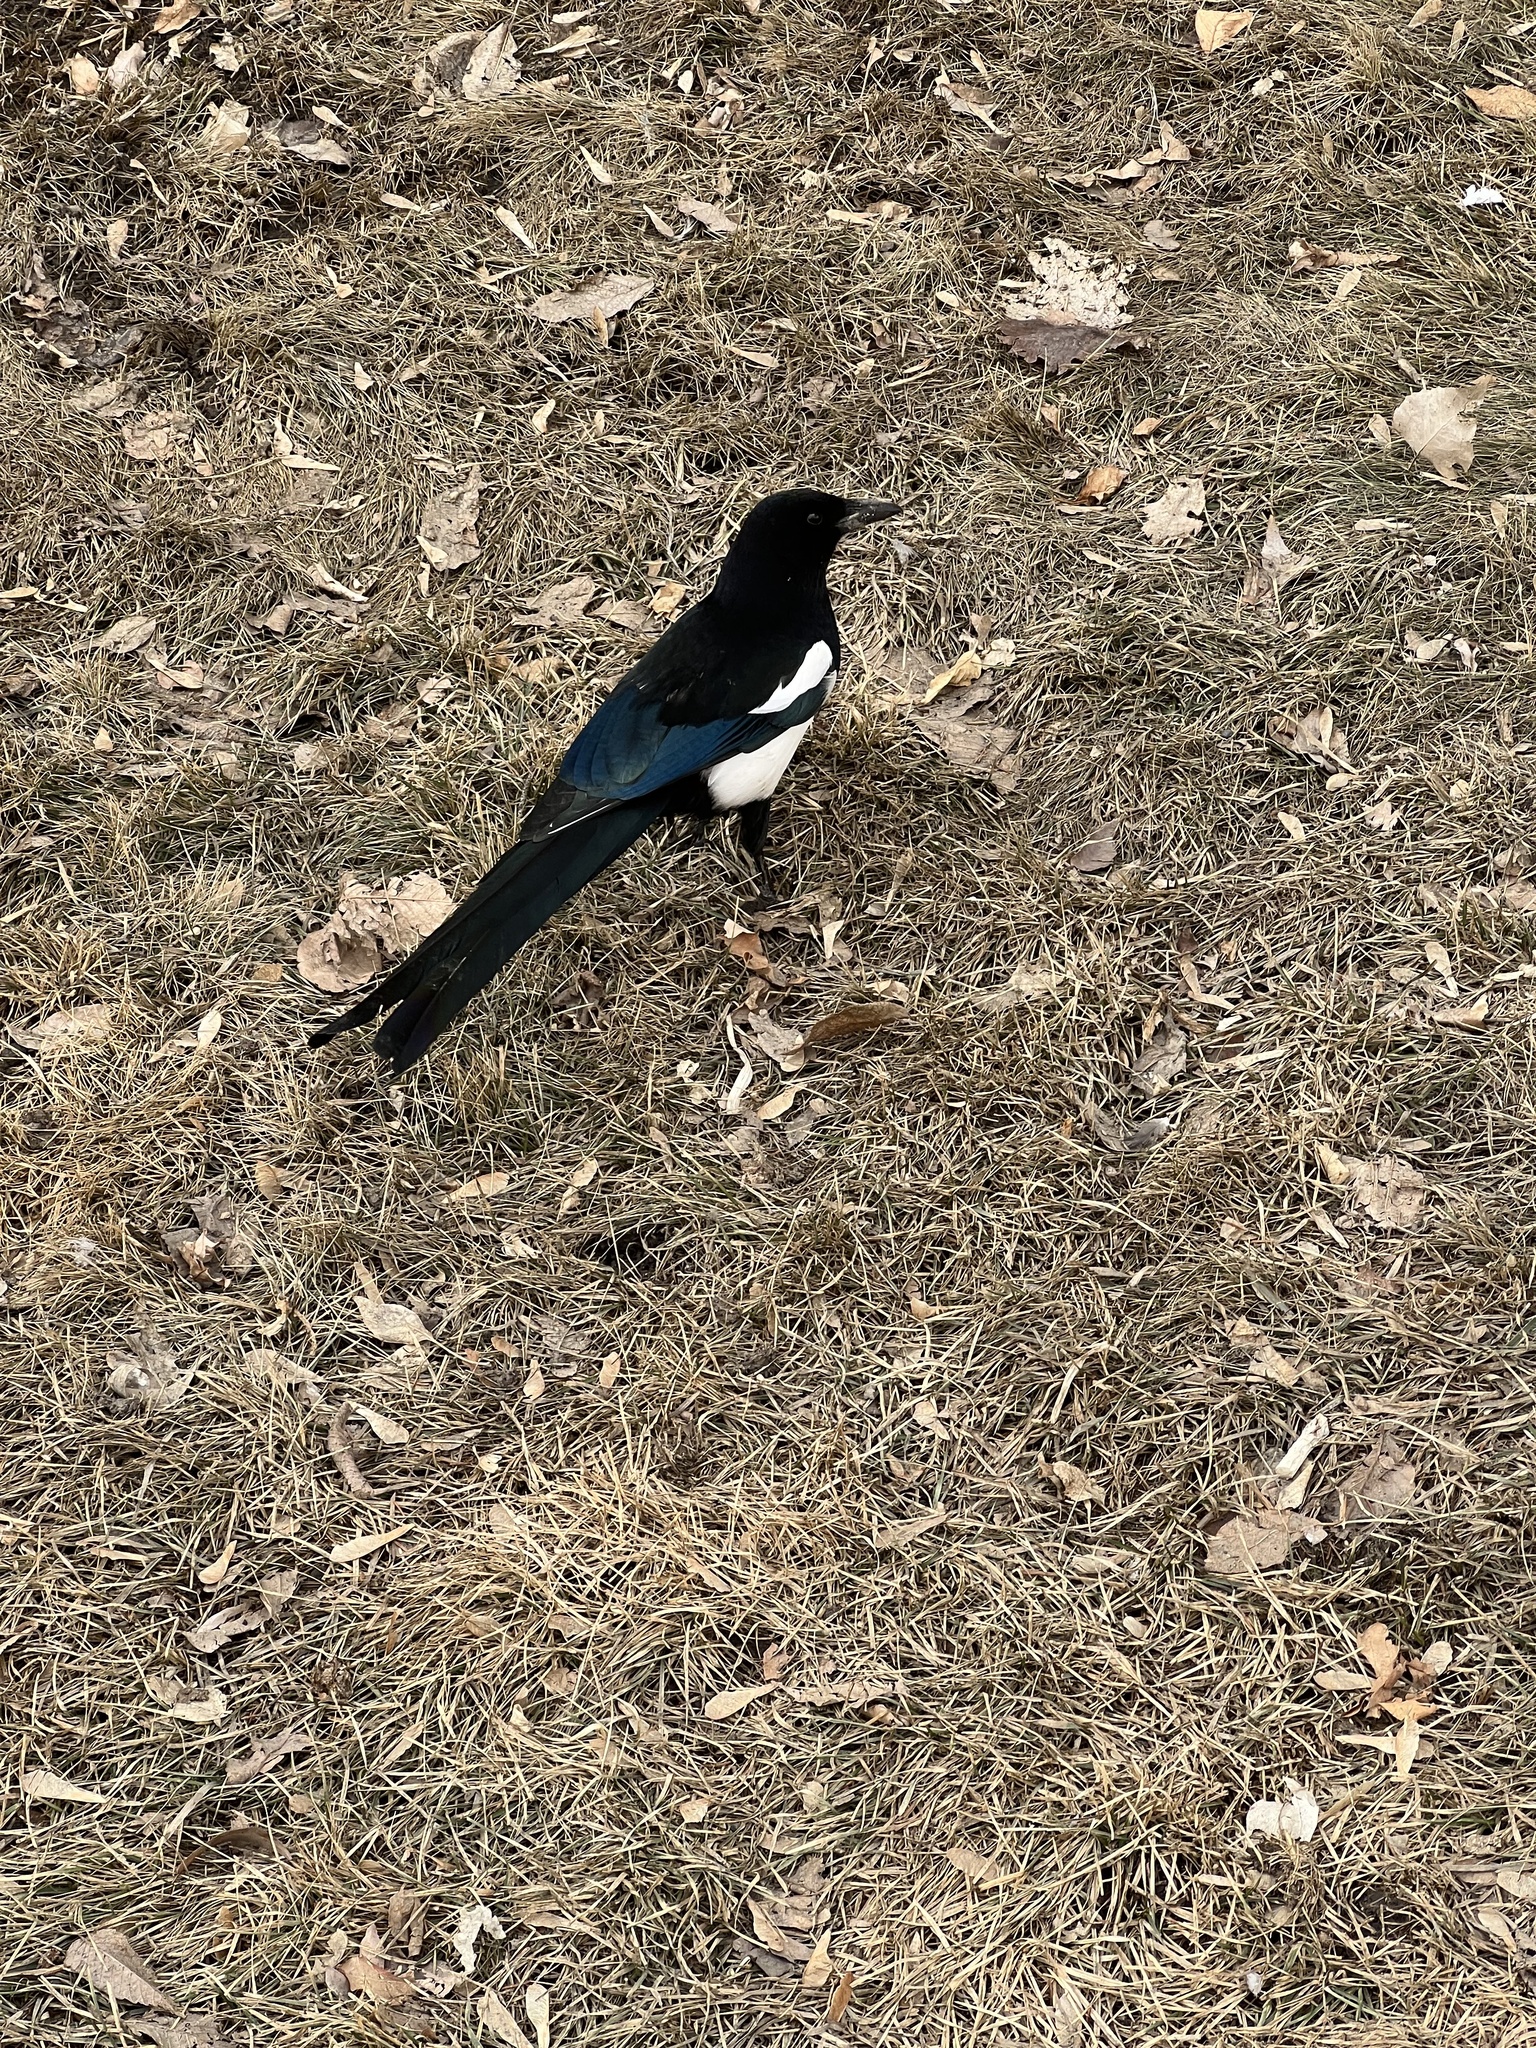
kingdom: Animalia
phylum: Chordata
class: Aves
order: Passeriformes
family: Corvidae
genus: Pica
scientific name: Pica hudsonia
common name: Black-billed magpie
